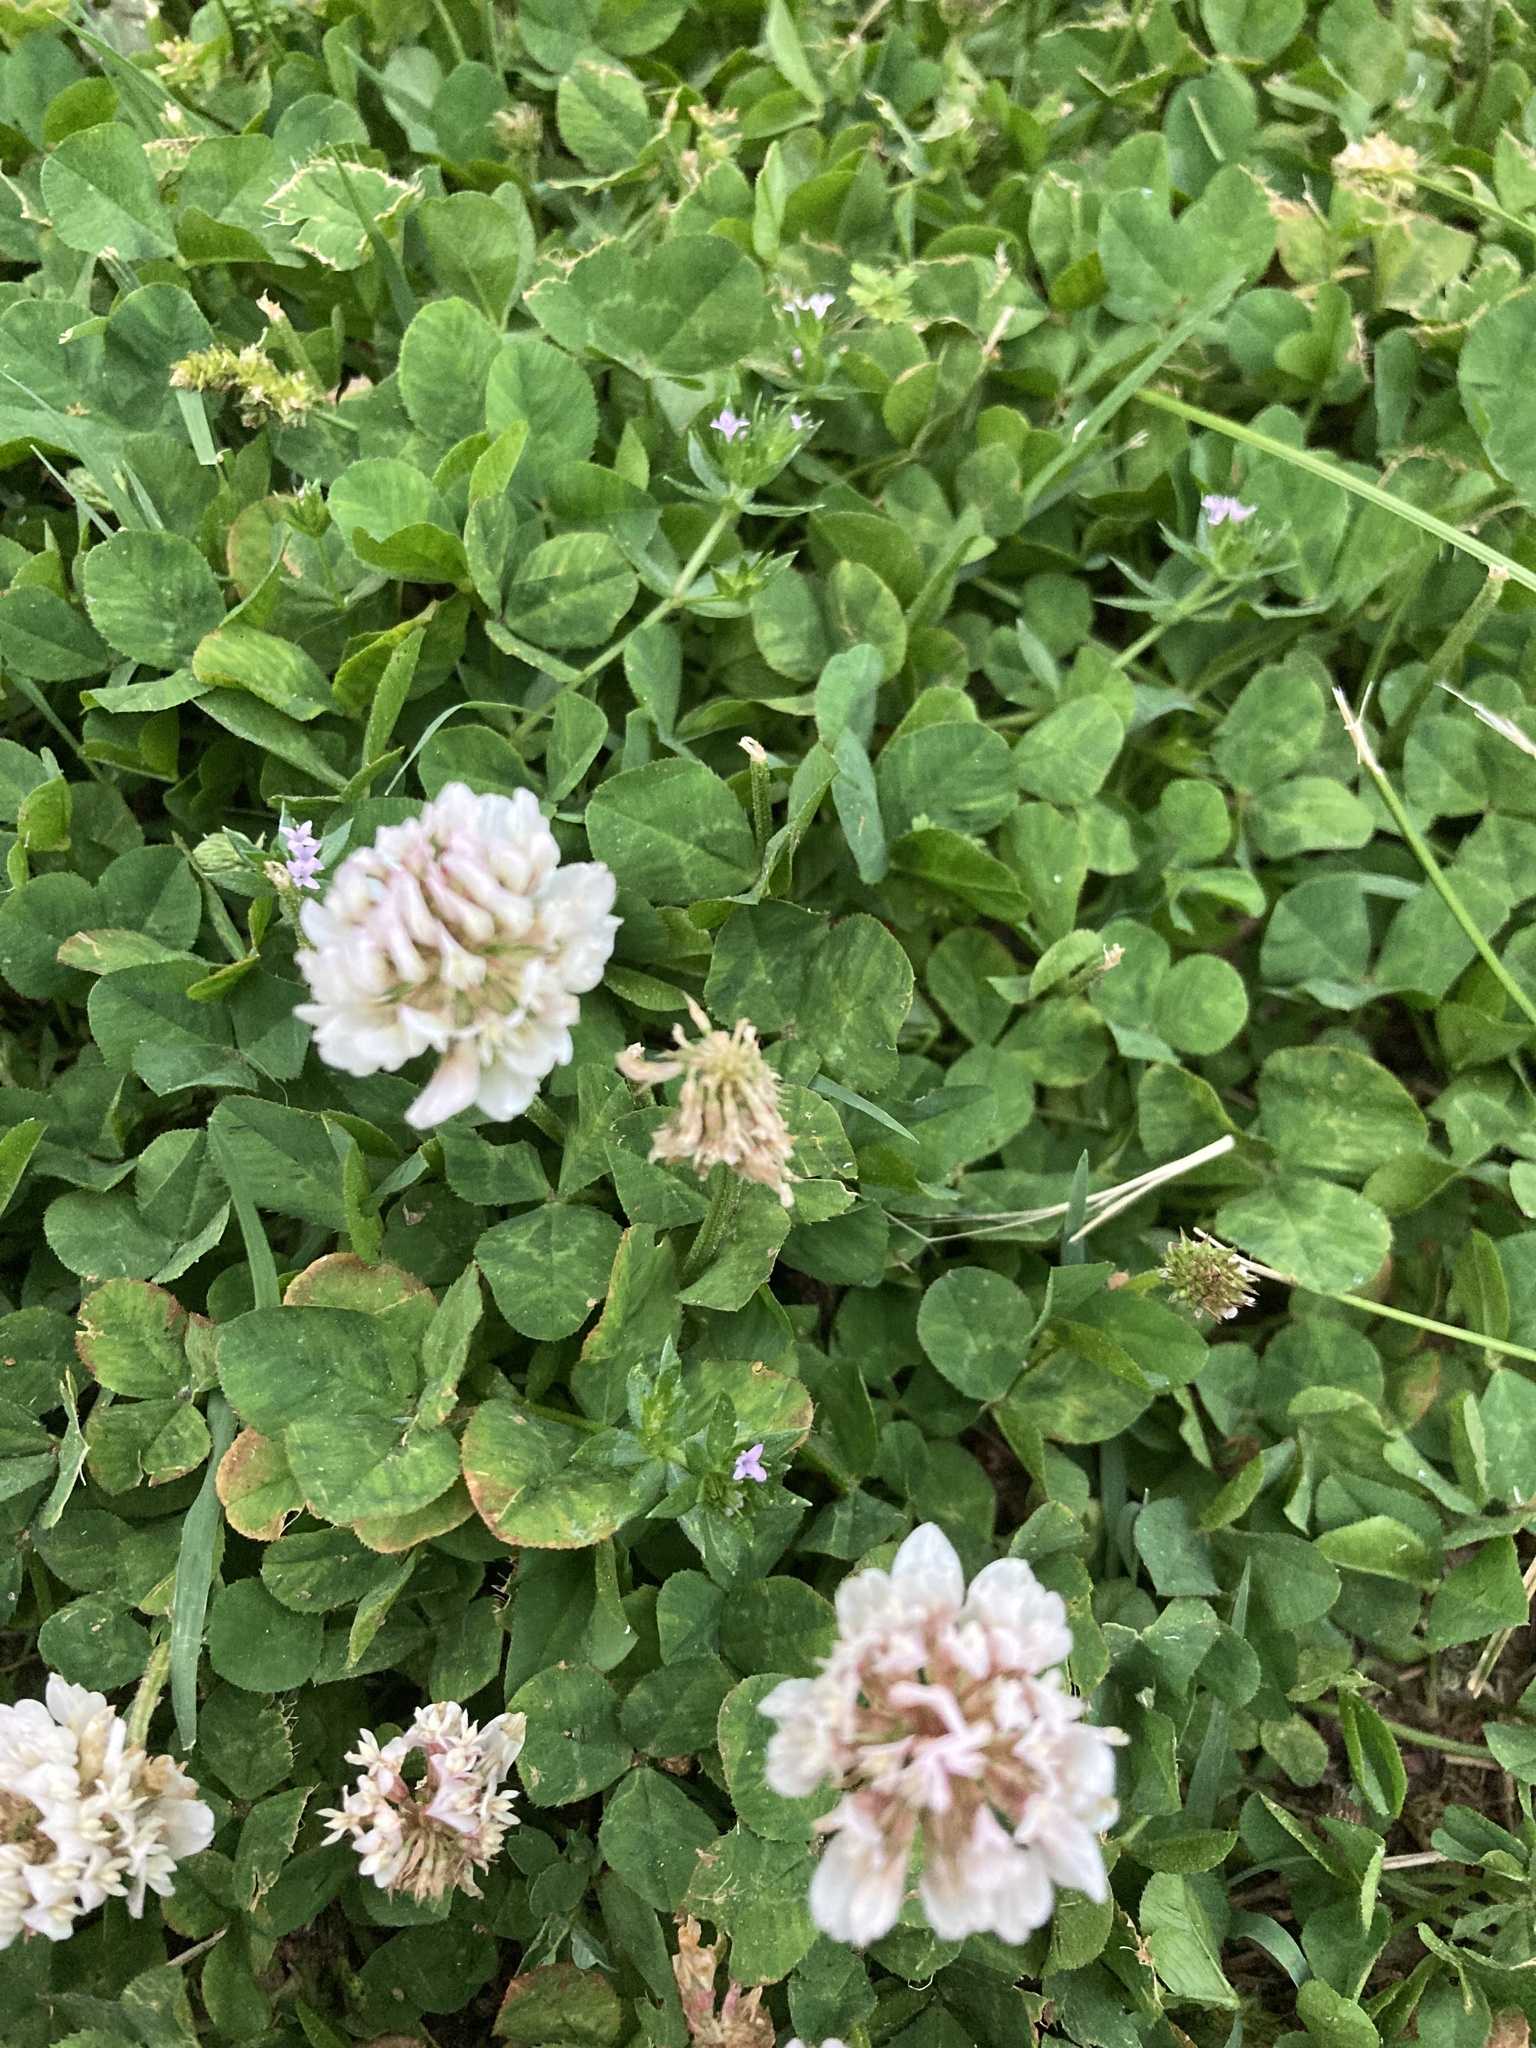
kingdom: Plantae
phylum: Tracheophyta
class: Magnoliopsida
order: Fabales
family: Fabaceae
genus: Trifolium
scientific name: Trifolium repens
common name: White clover
